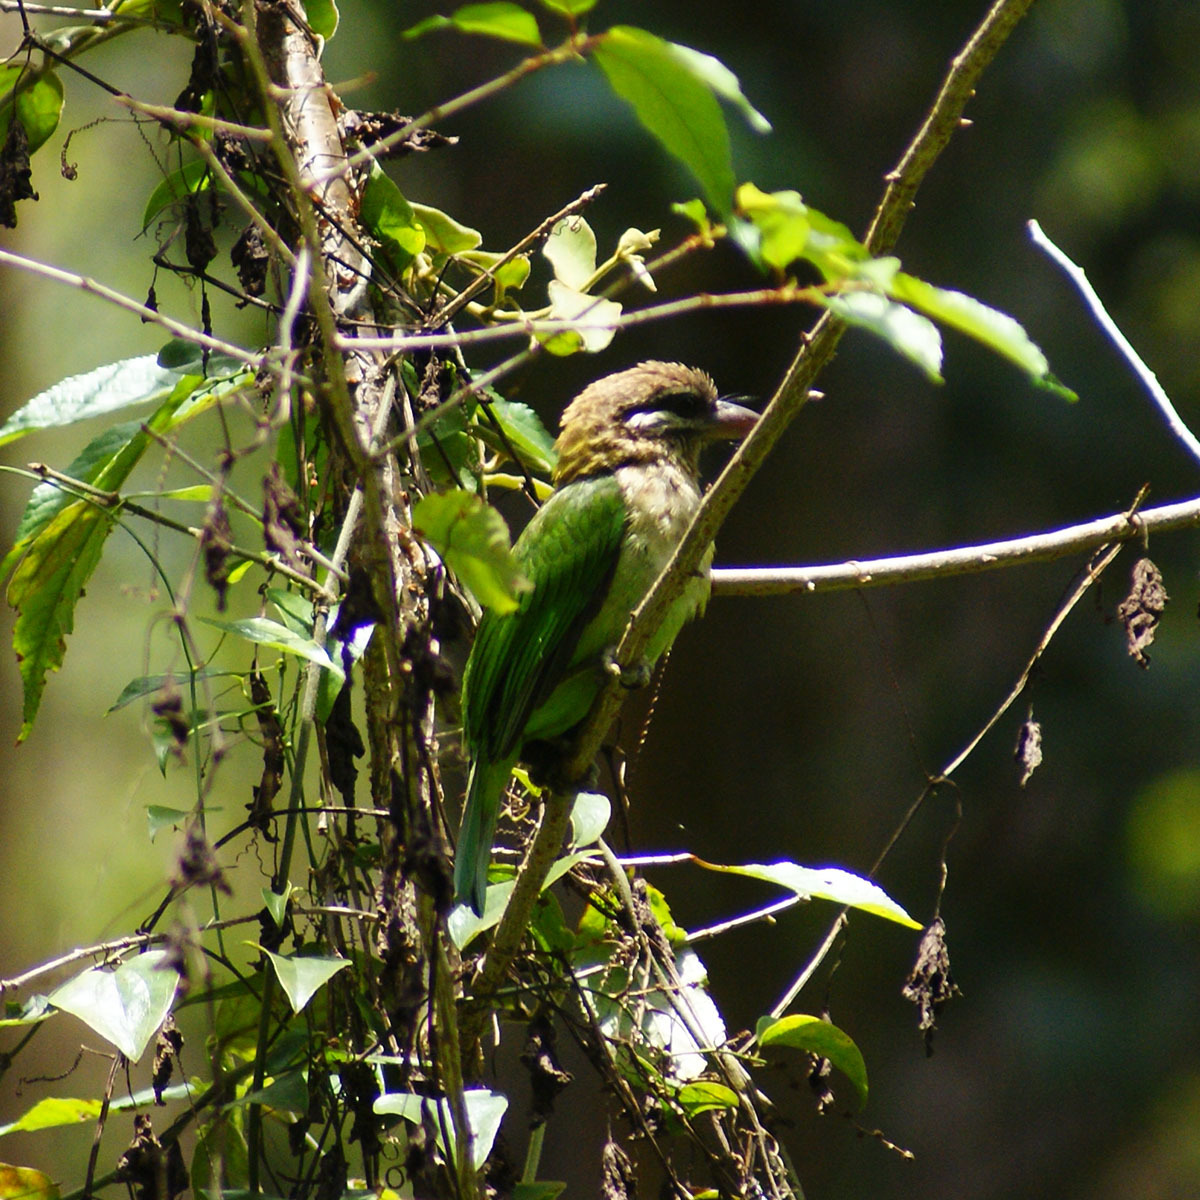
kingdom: Animalia
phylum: Chordata
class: Aves
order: Piciformes
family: Megalaimidae
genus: Psilopogon
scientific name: Psilopogon viridis
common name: White-cheeked barbet
